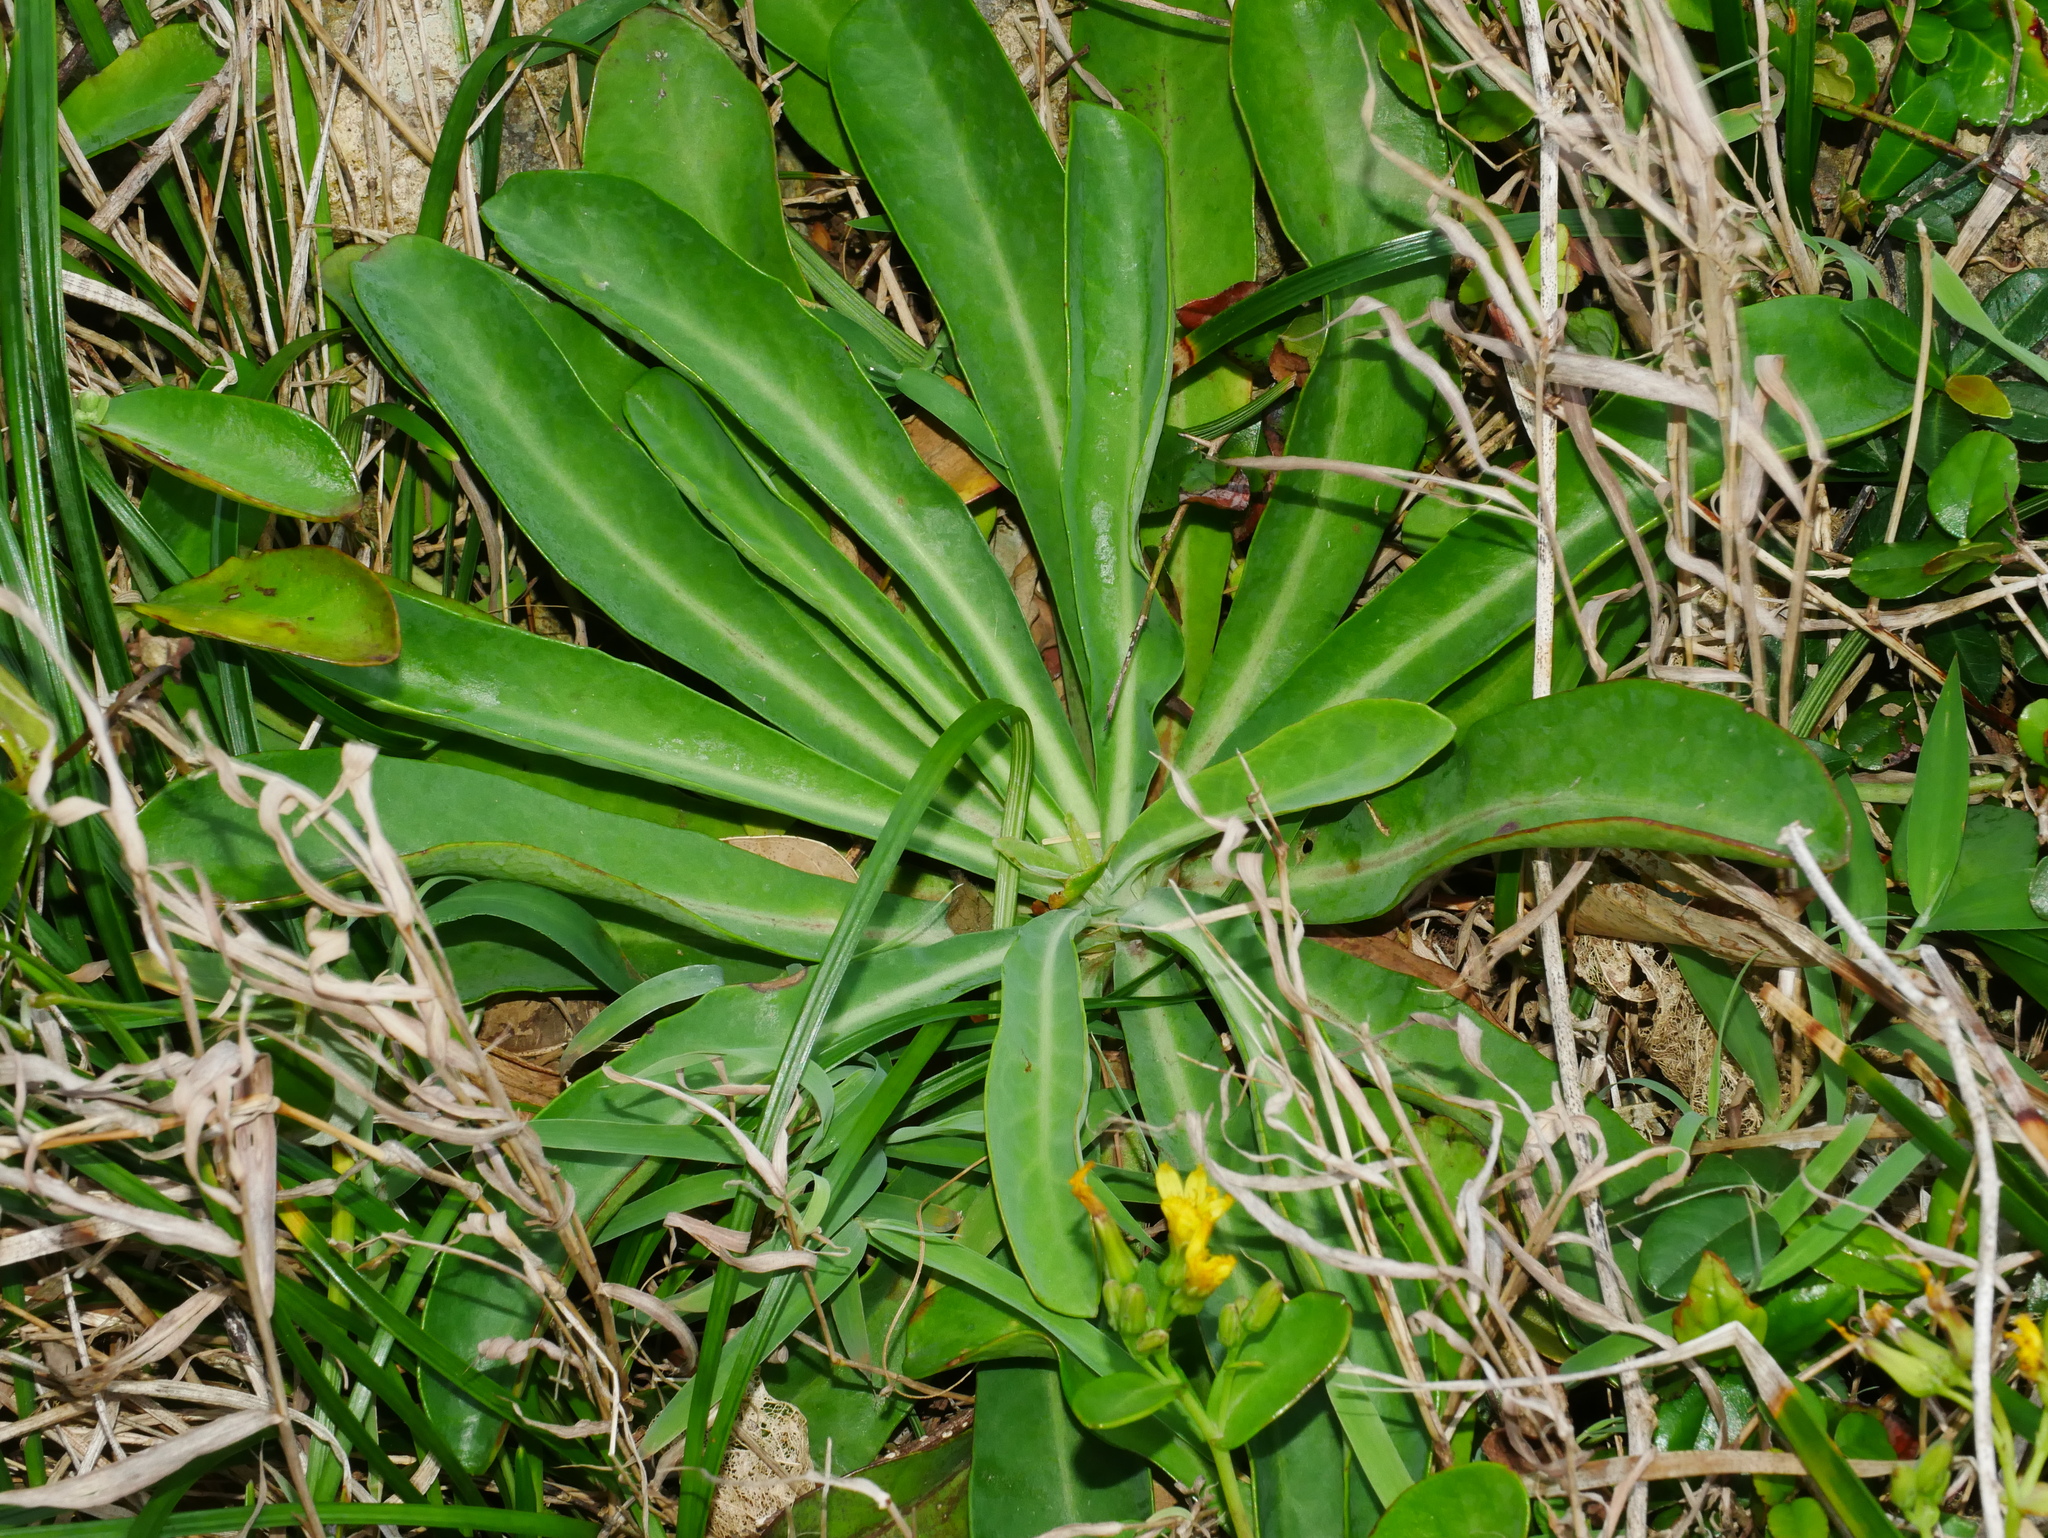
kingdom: Plantae
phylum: Tracheophyta
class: Magnoliopsida
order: Asterales
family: Asteraceae
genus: Crepidiastrum
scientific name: Crepidiastrum taiwanianum
